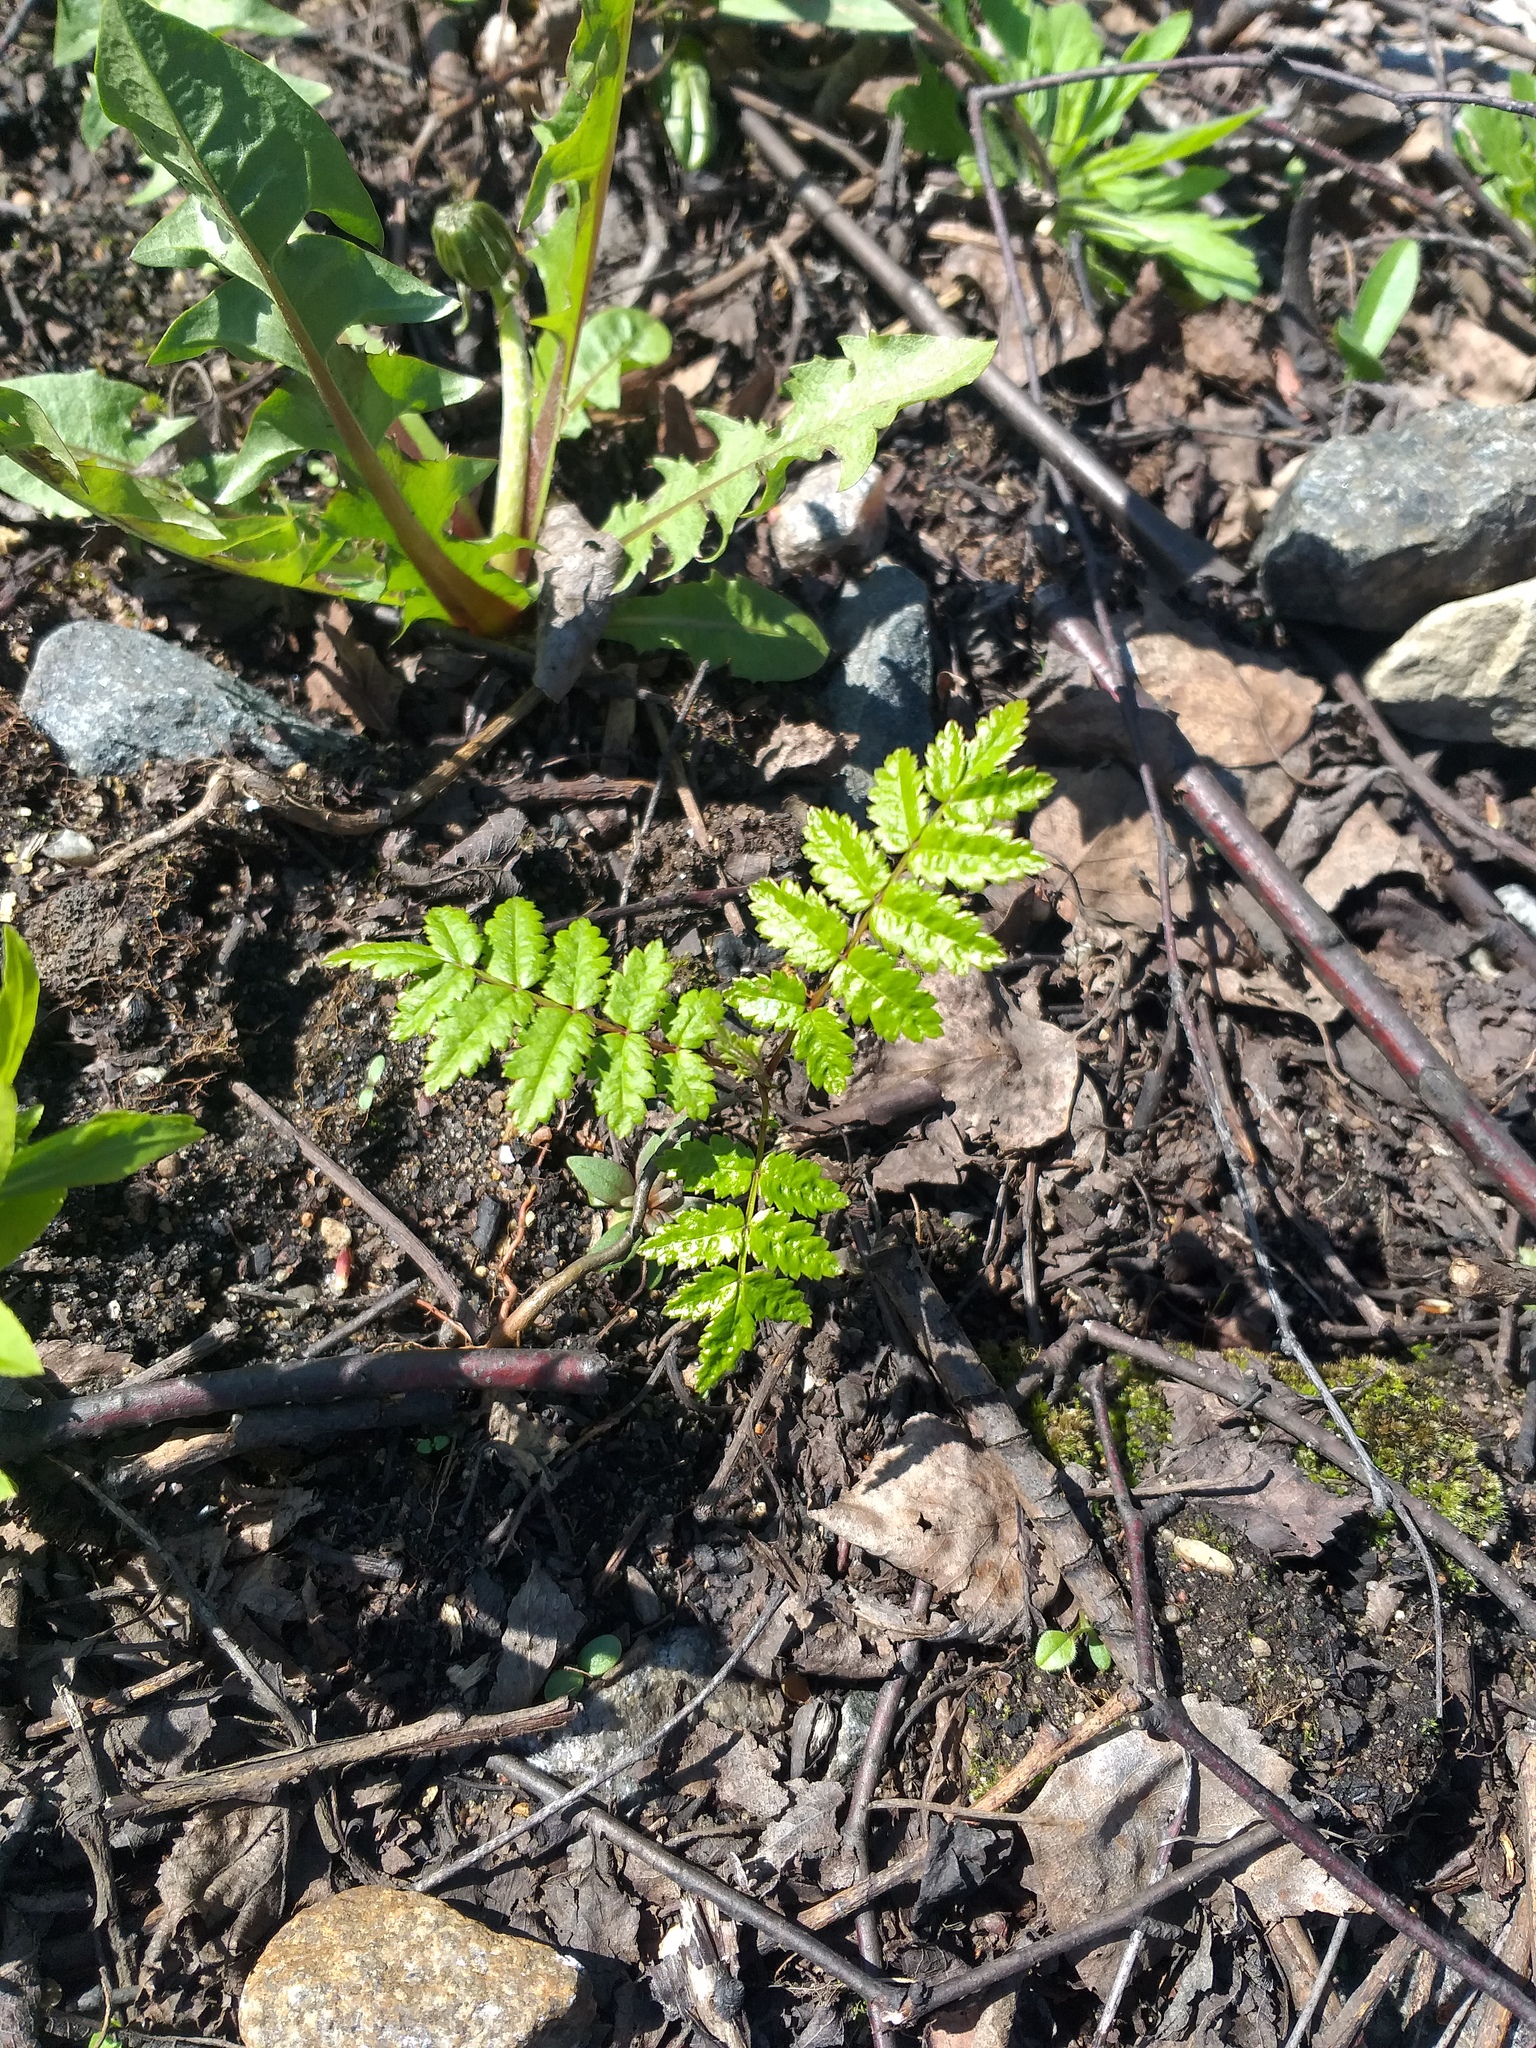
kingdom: Plantae
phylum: Tracheophyta
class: Magnoliopsida
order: Rosales
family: Rosaceae
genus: Sorbus
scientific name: Sorbus aucuparia
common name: Rowan
